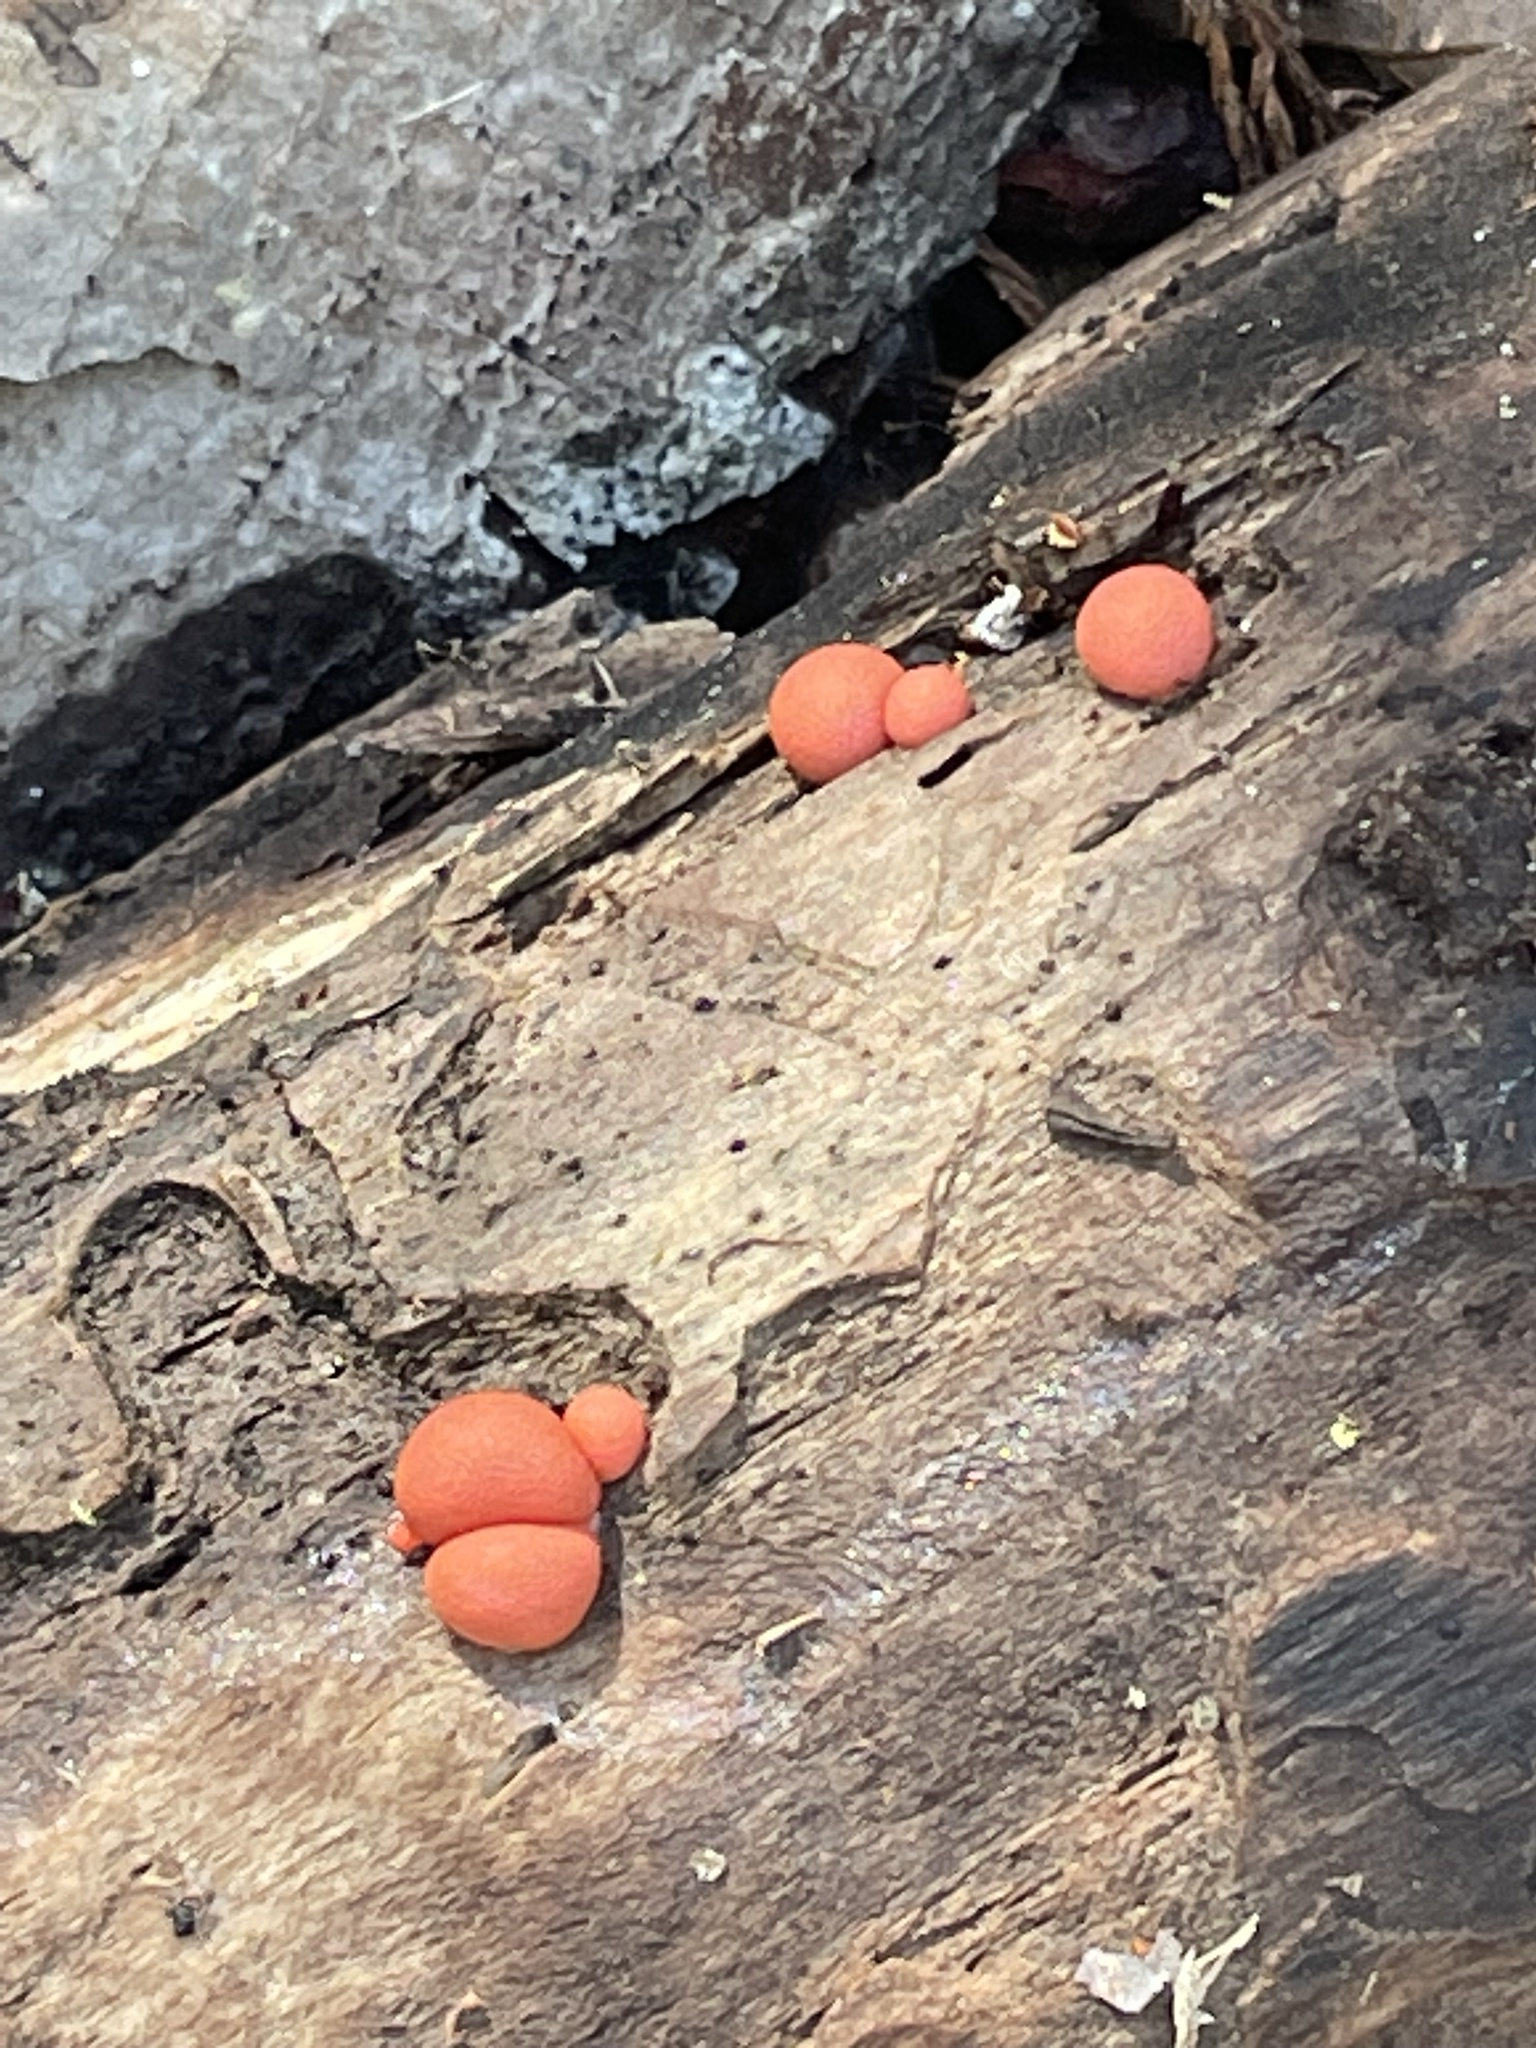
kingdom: Protozoa
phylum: Mycetozoa
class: Myxomycetes
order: Cribrariales
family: Tubiferaceae
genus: Lycogala
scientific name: Lycogala epidendrum
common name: Wolf's milk
